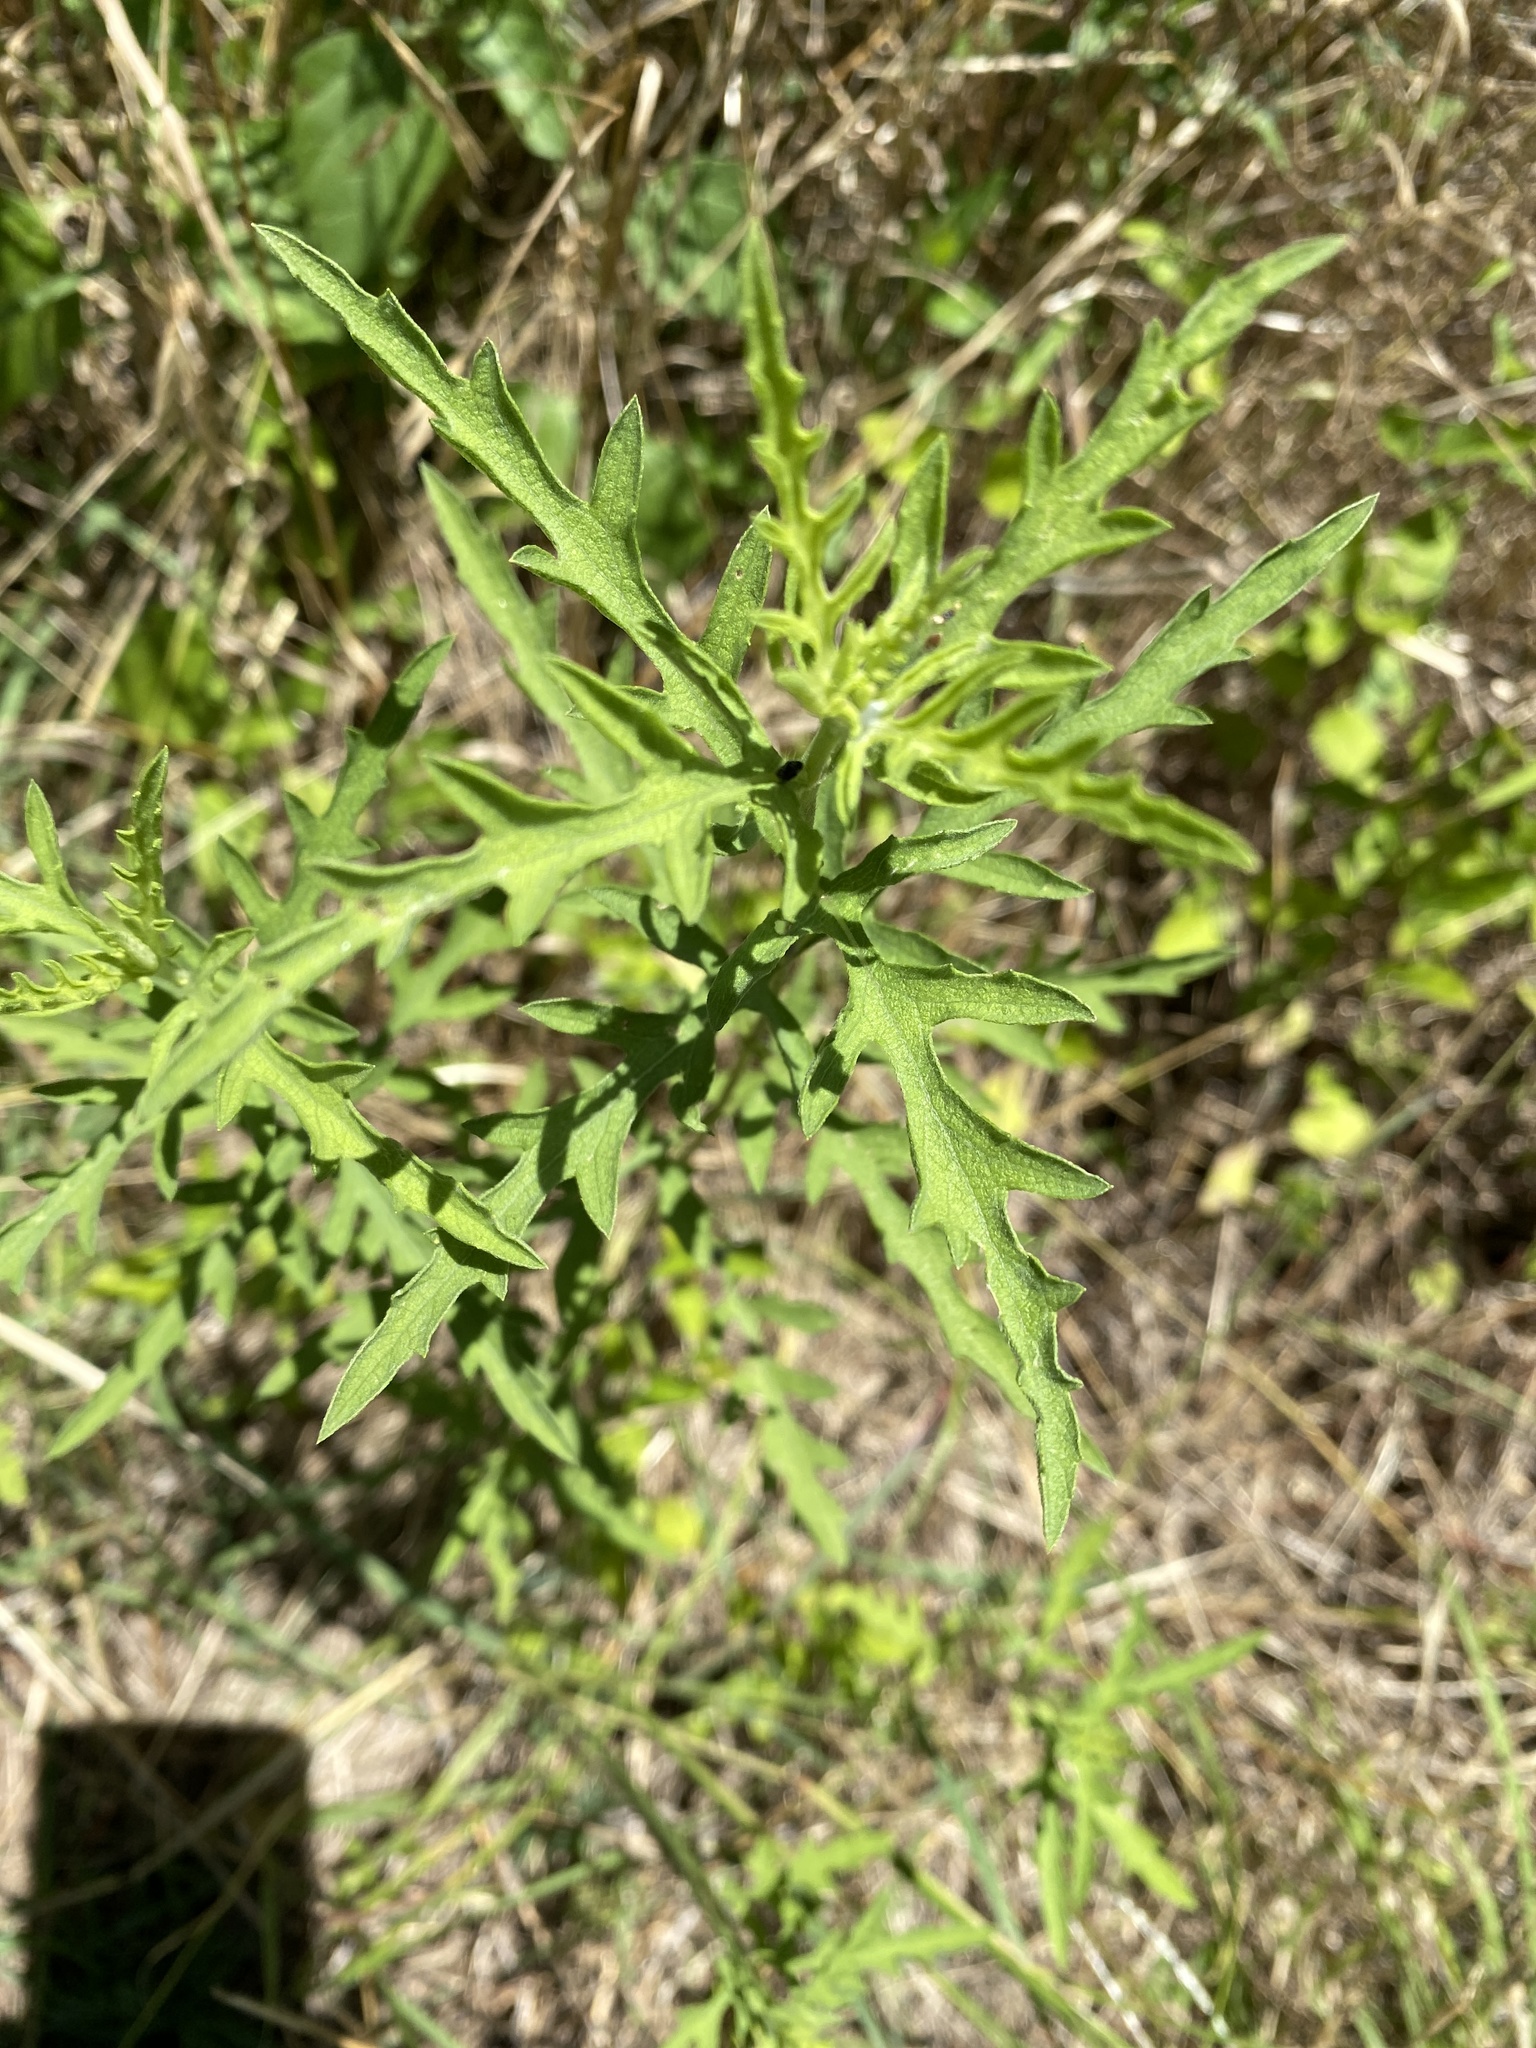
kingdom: Plantae
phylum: Tracheophyta
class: Magnoliopsida
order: Asterales
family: Asteraceae
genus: Ambrosia
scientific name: Ambrosia psilostachya
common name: Perennial ragweed
